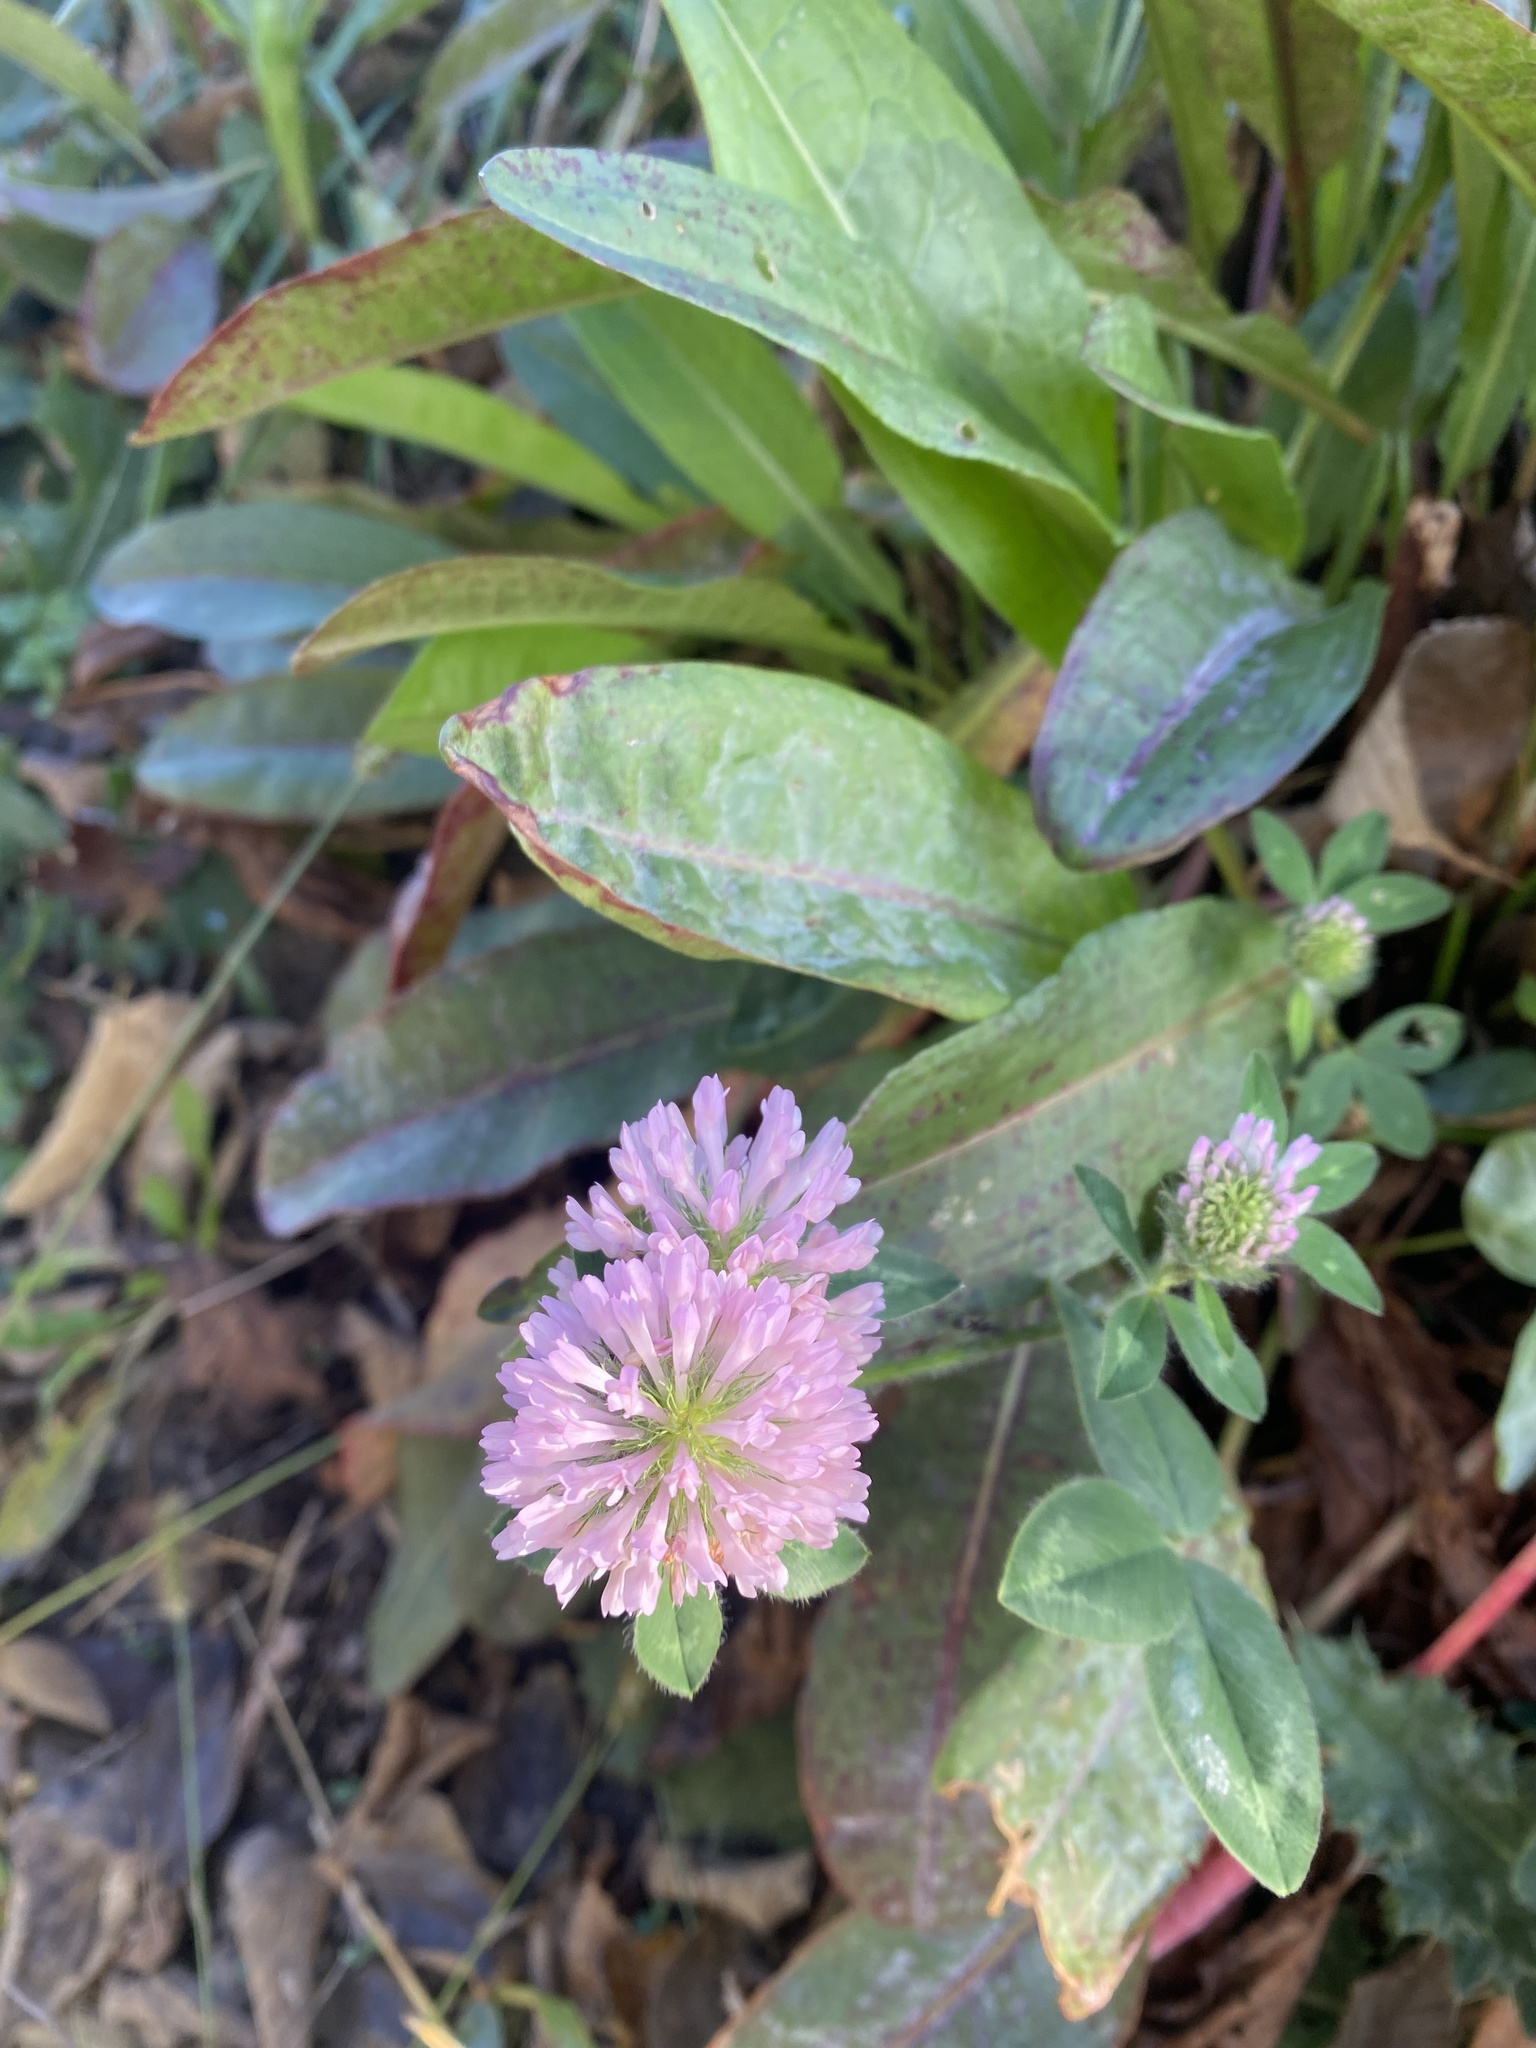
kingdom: Plantae
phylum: Tracheophyta
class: Magnoliopsida
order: Fabales
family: Fabaceae
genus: Trifolium
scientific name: Trifolium pratense
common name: Red clover
